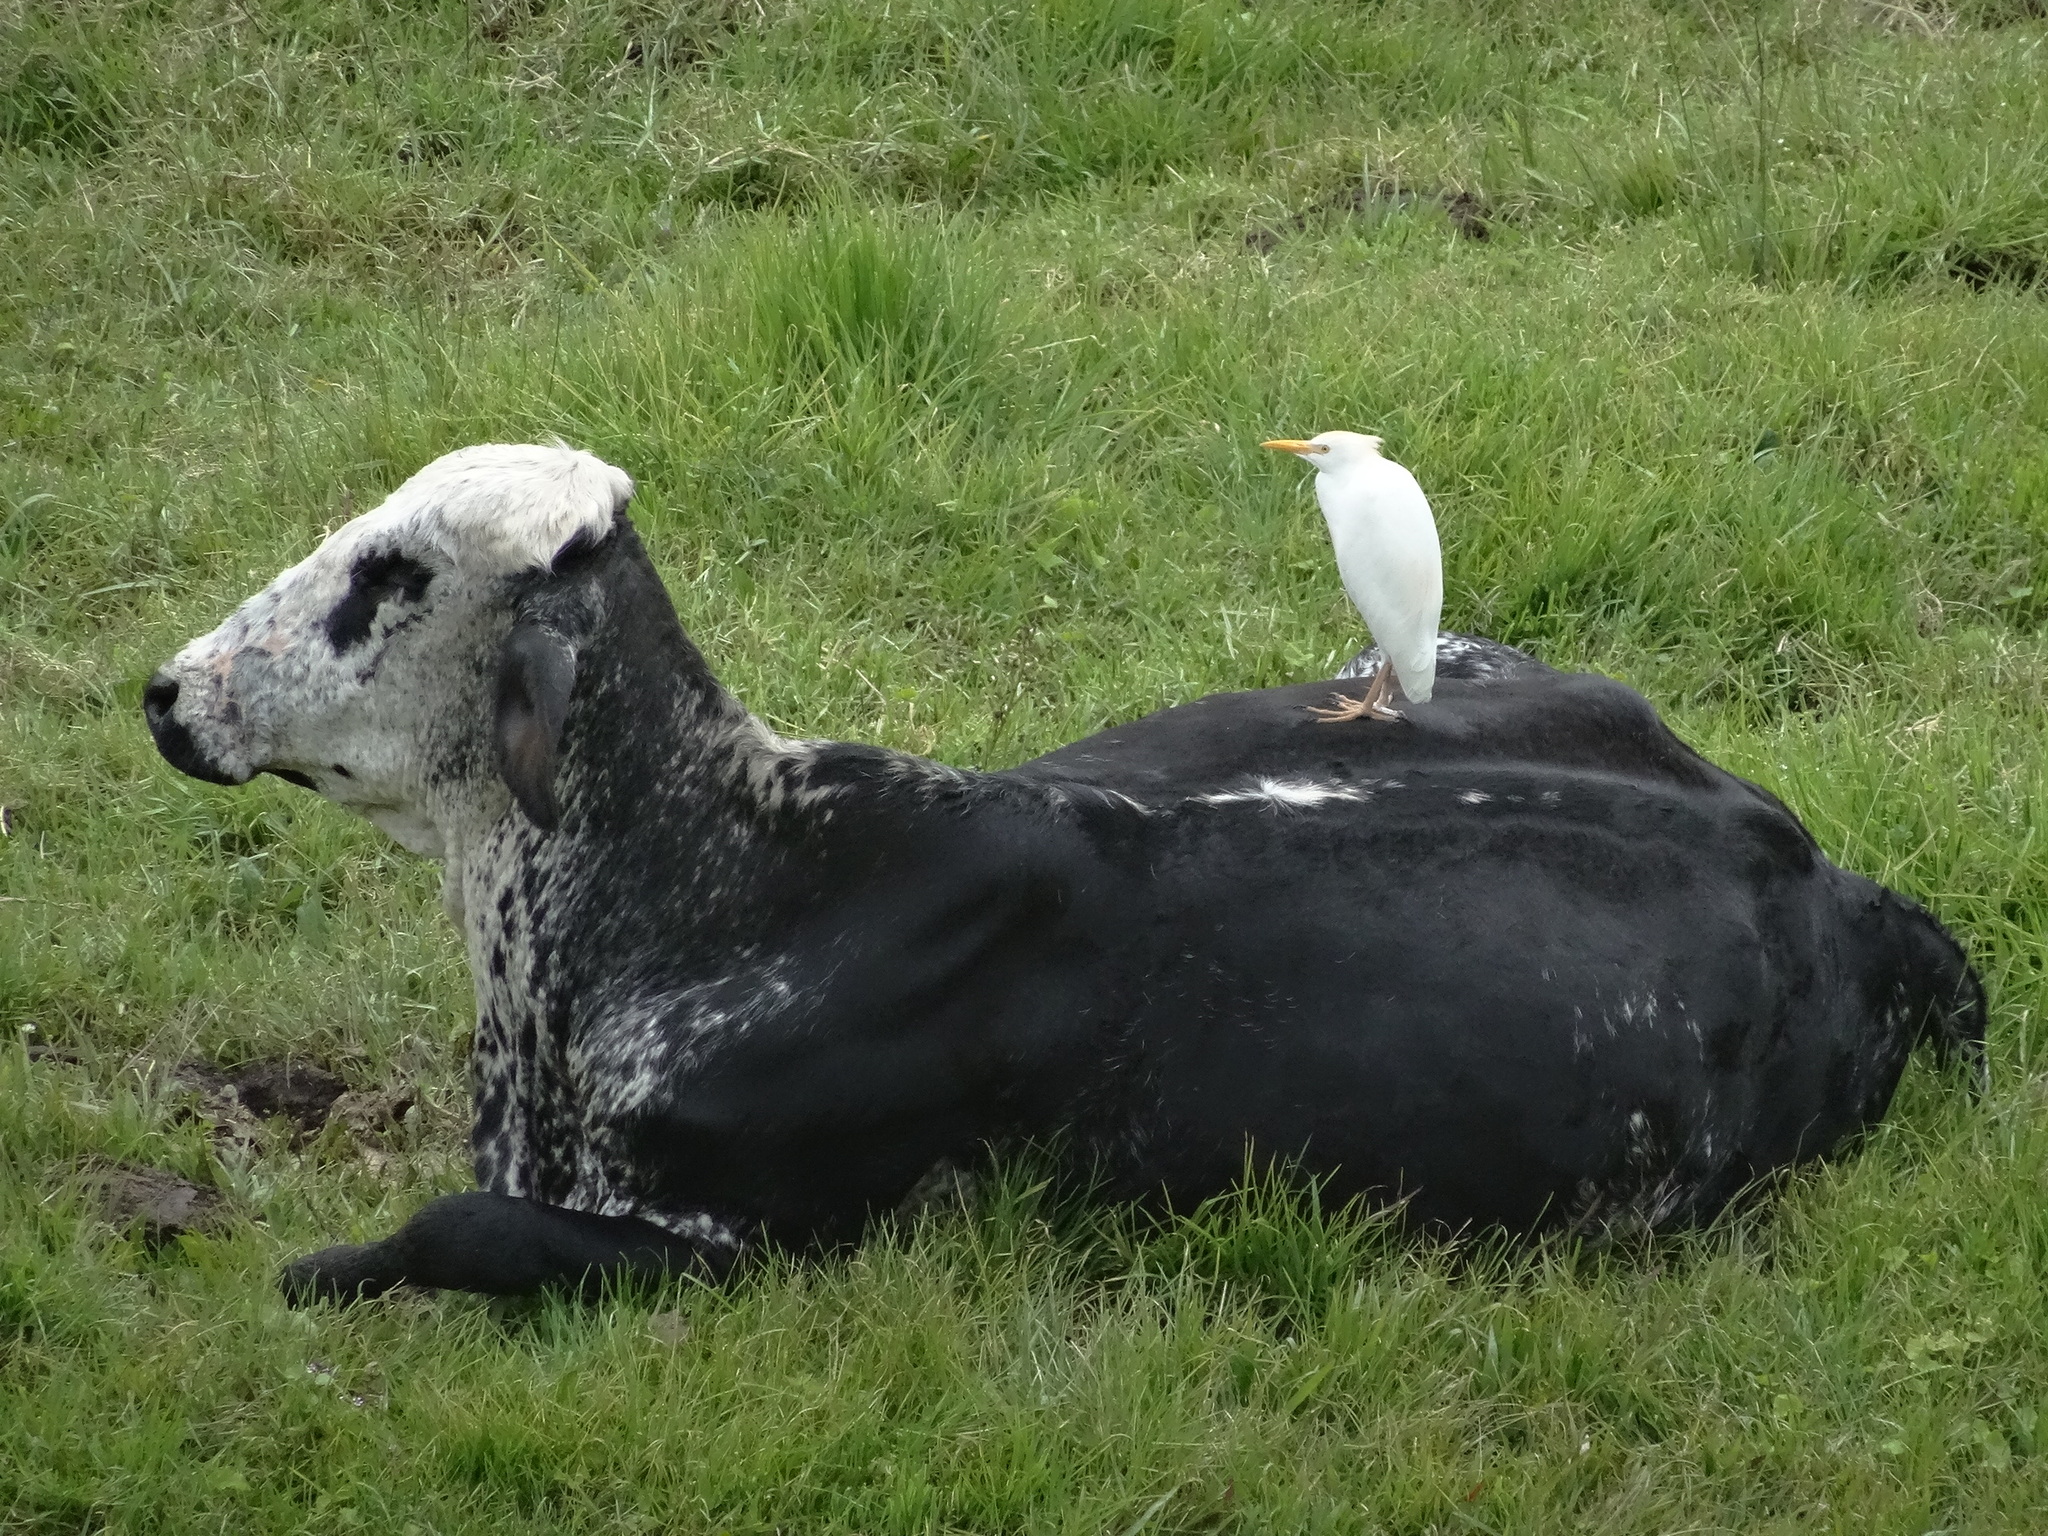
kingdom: Animalia
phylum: Chordata
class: Aves
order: Pelecaniformes
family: Ardeidae
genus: Bubulcus
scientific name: Bubulcus ibis
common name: Cattle egret
